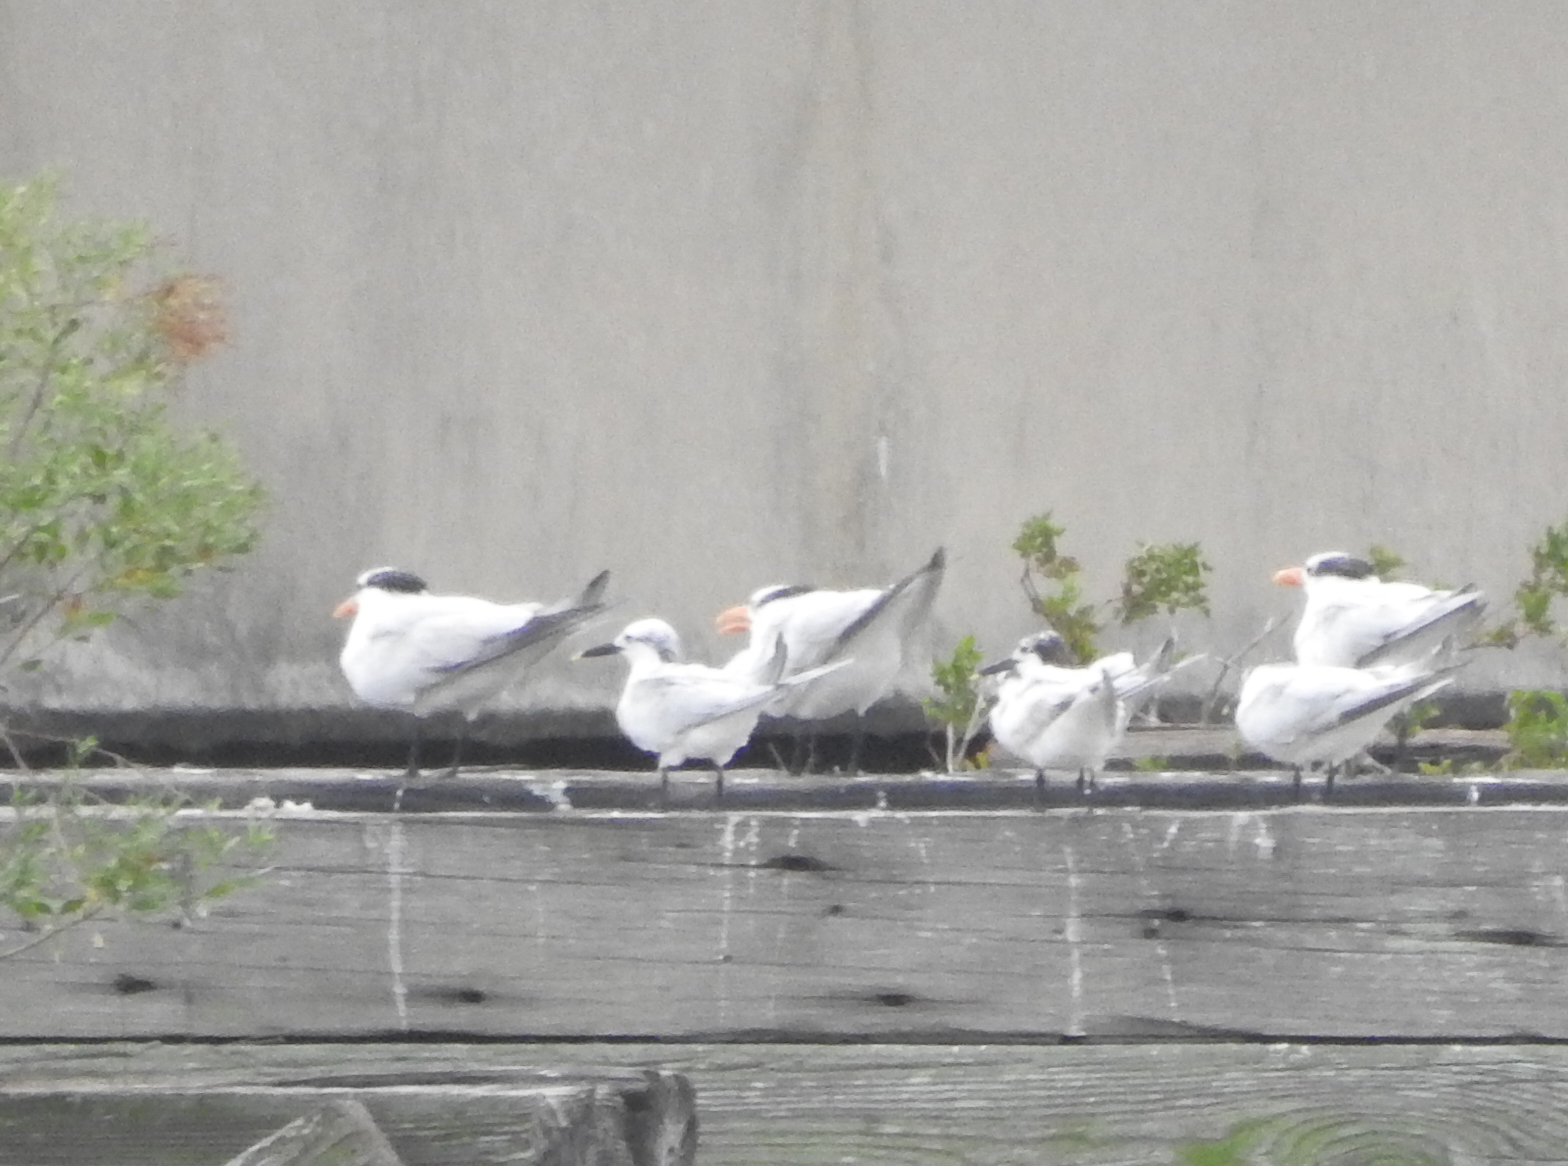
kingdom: Animalia
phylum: Chordata
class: Aves
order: Charadriiformes
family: Laridae
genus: Thalasseus
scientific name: Thalasseus sandvicensis
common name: Sandwich tern
